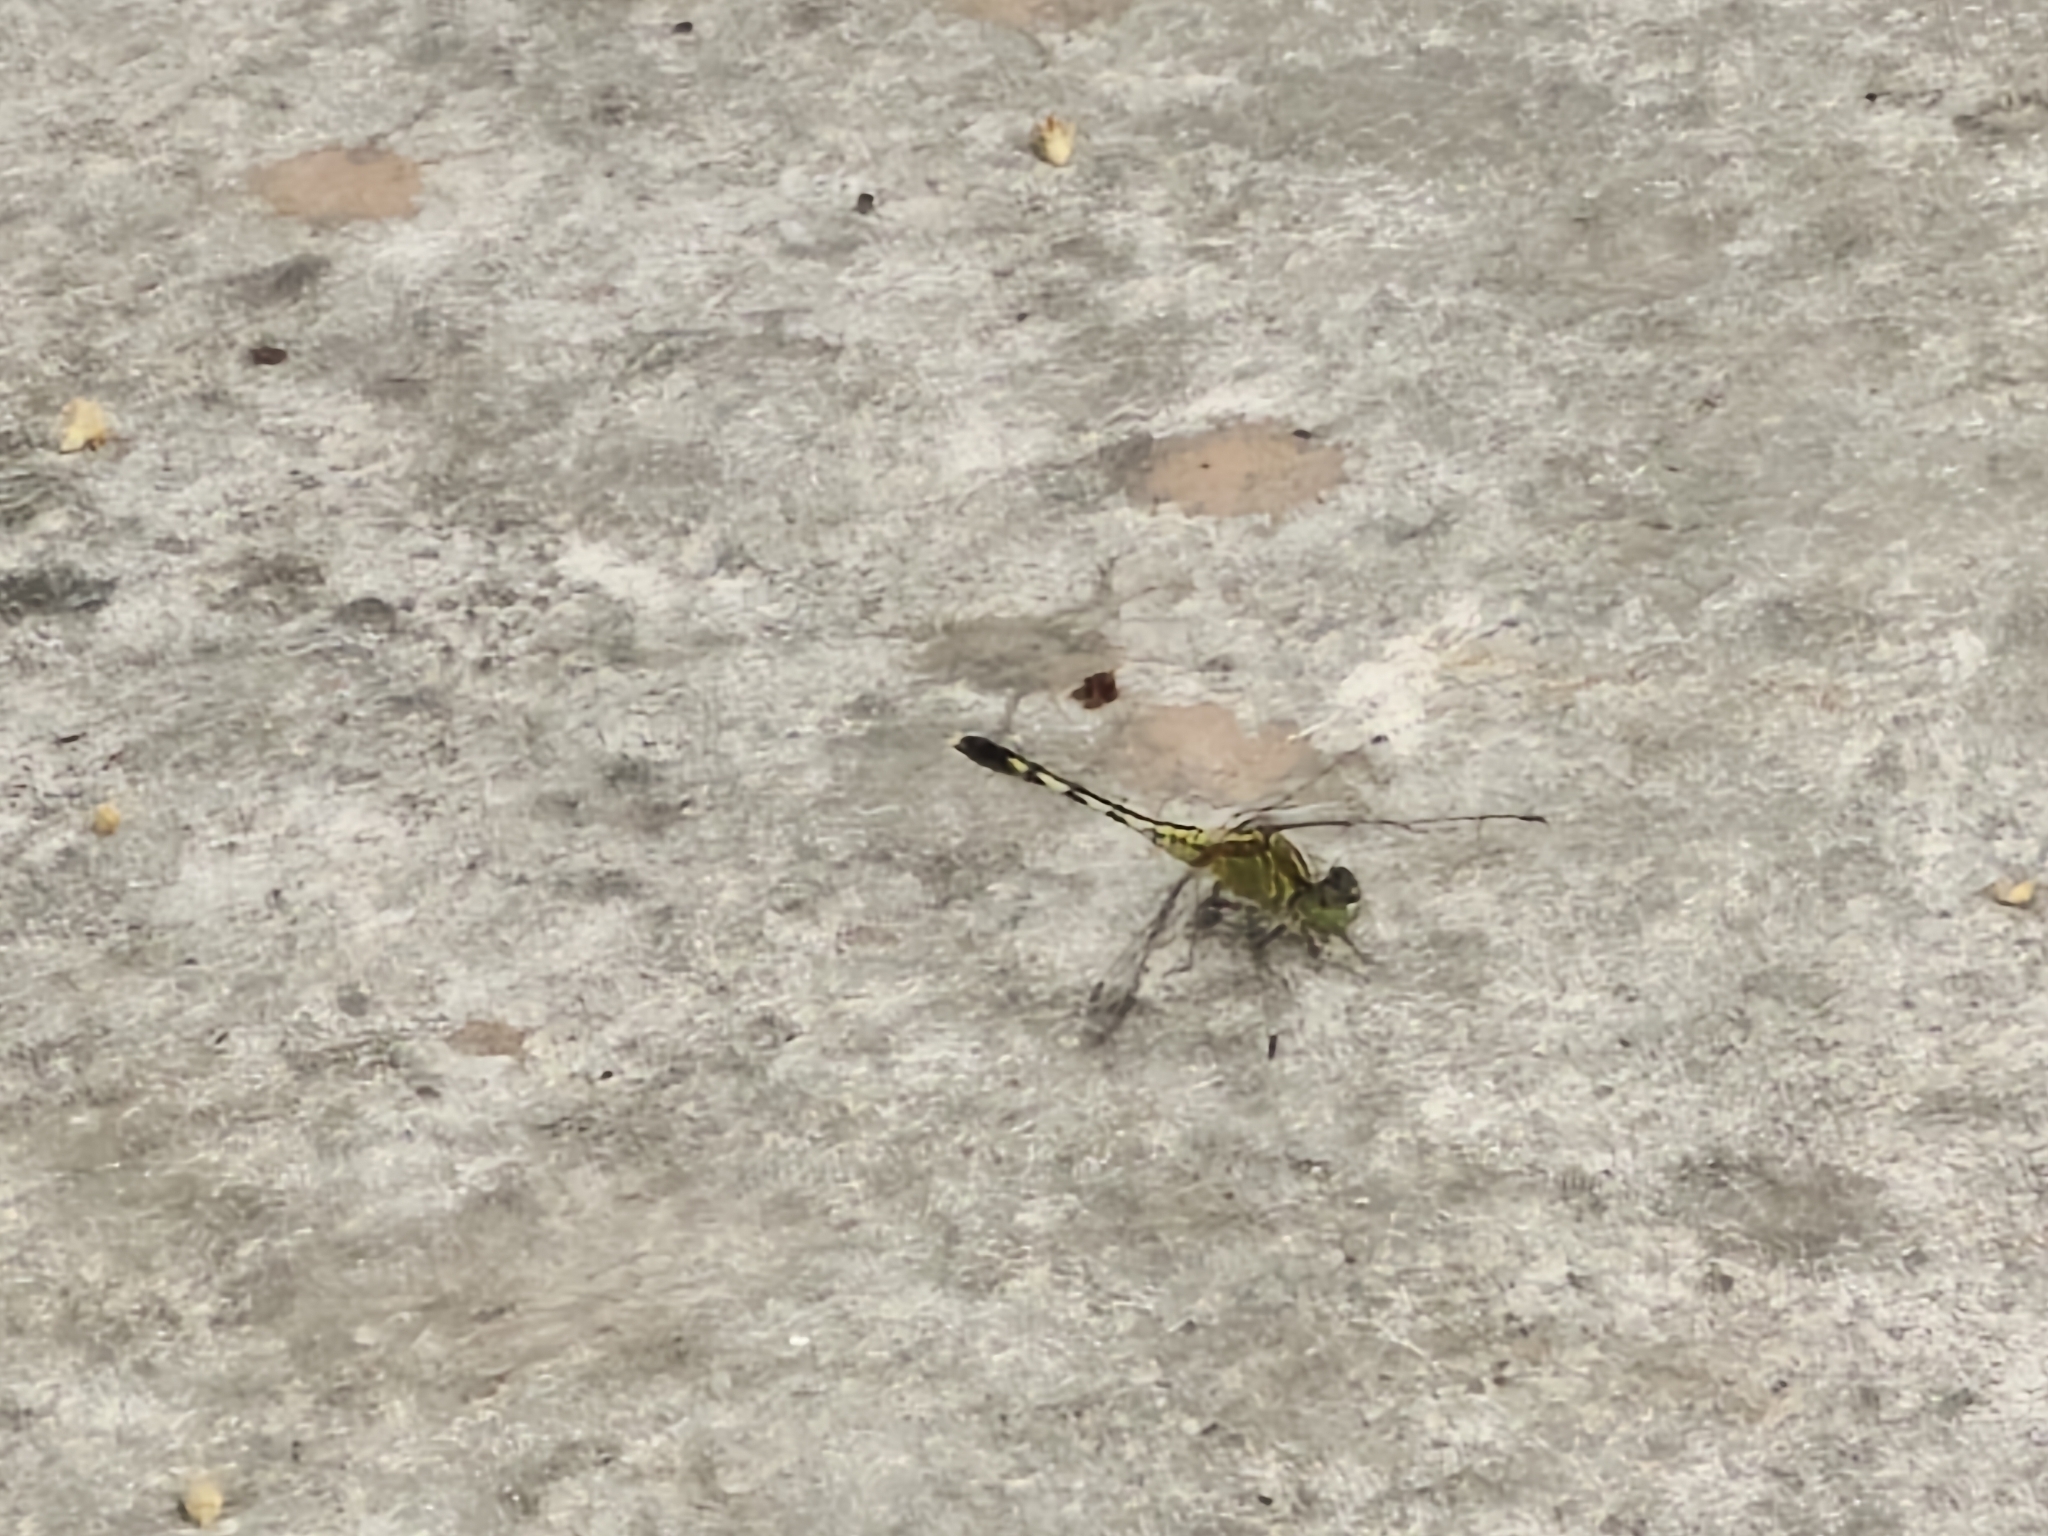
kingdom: Animalia
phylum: Arthropoda
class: Insecta
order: Odonata
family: Libellulidae
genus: Diplacodes
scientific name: Diplacodes trivialis
